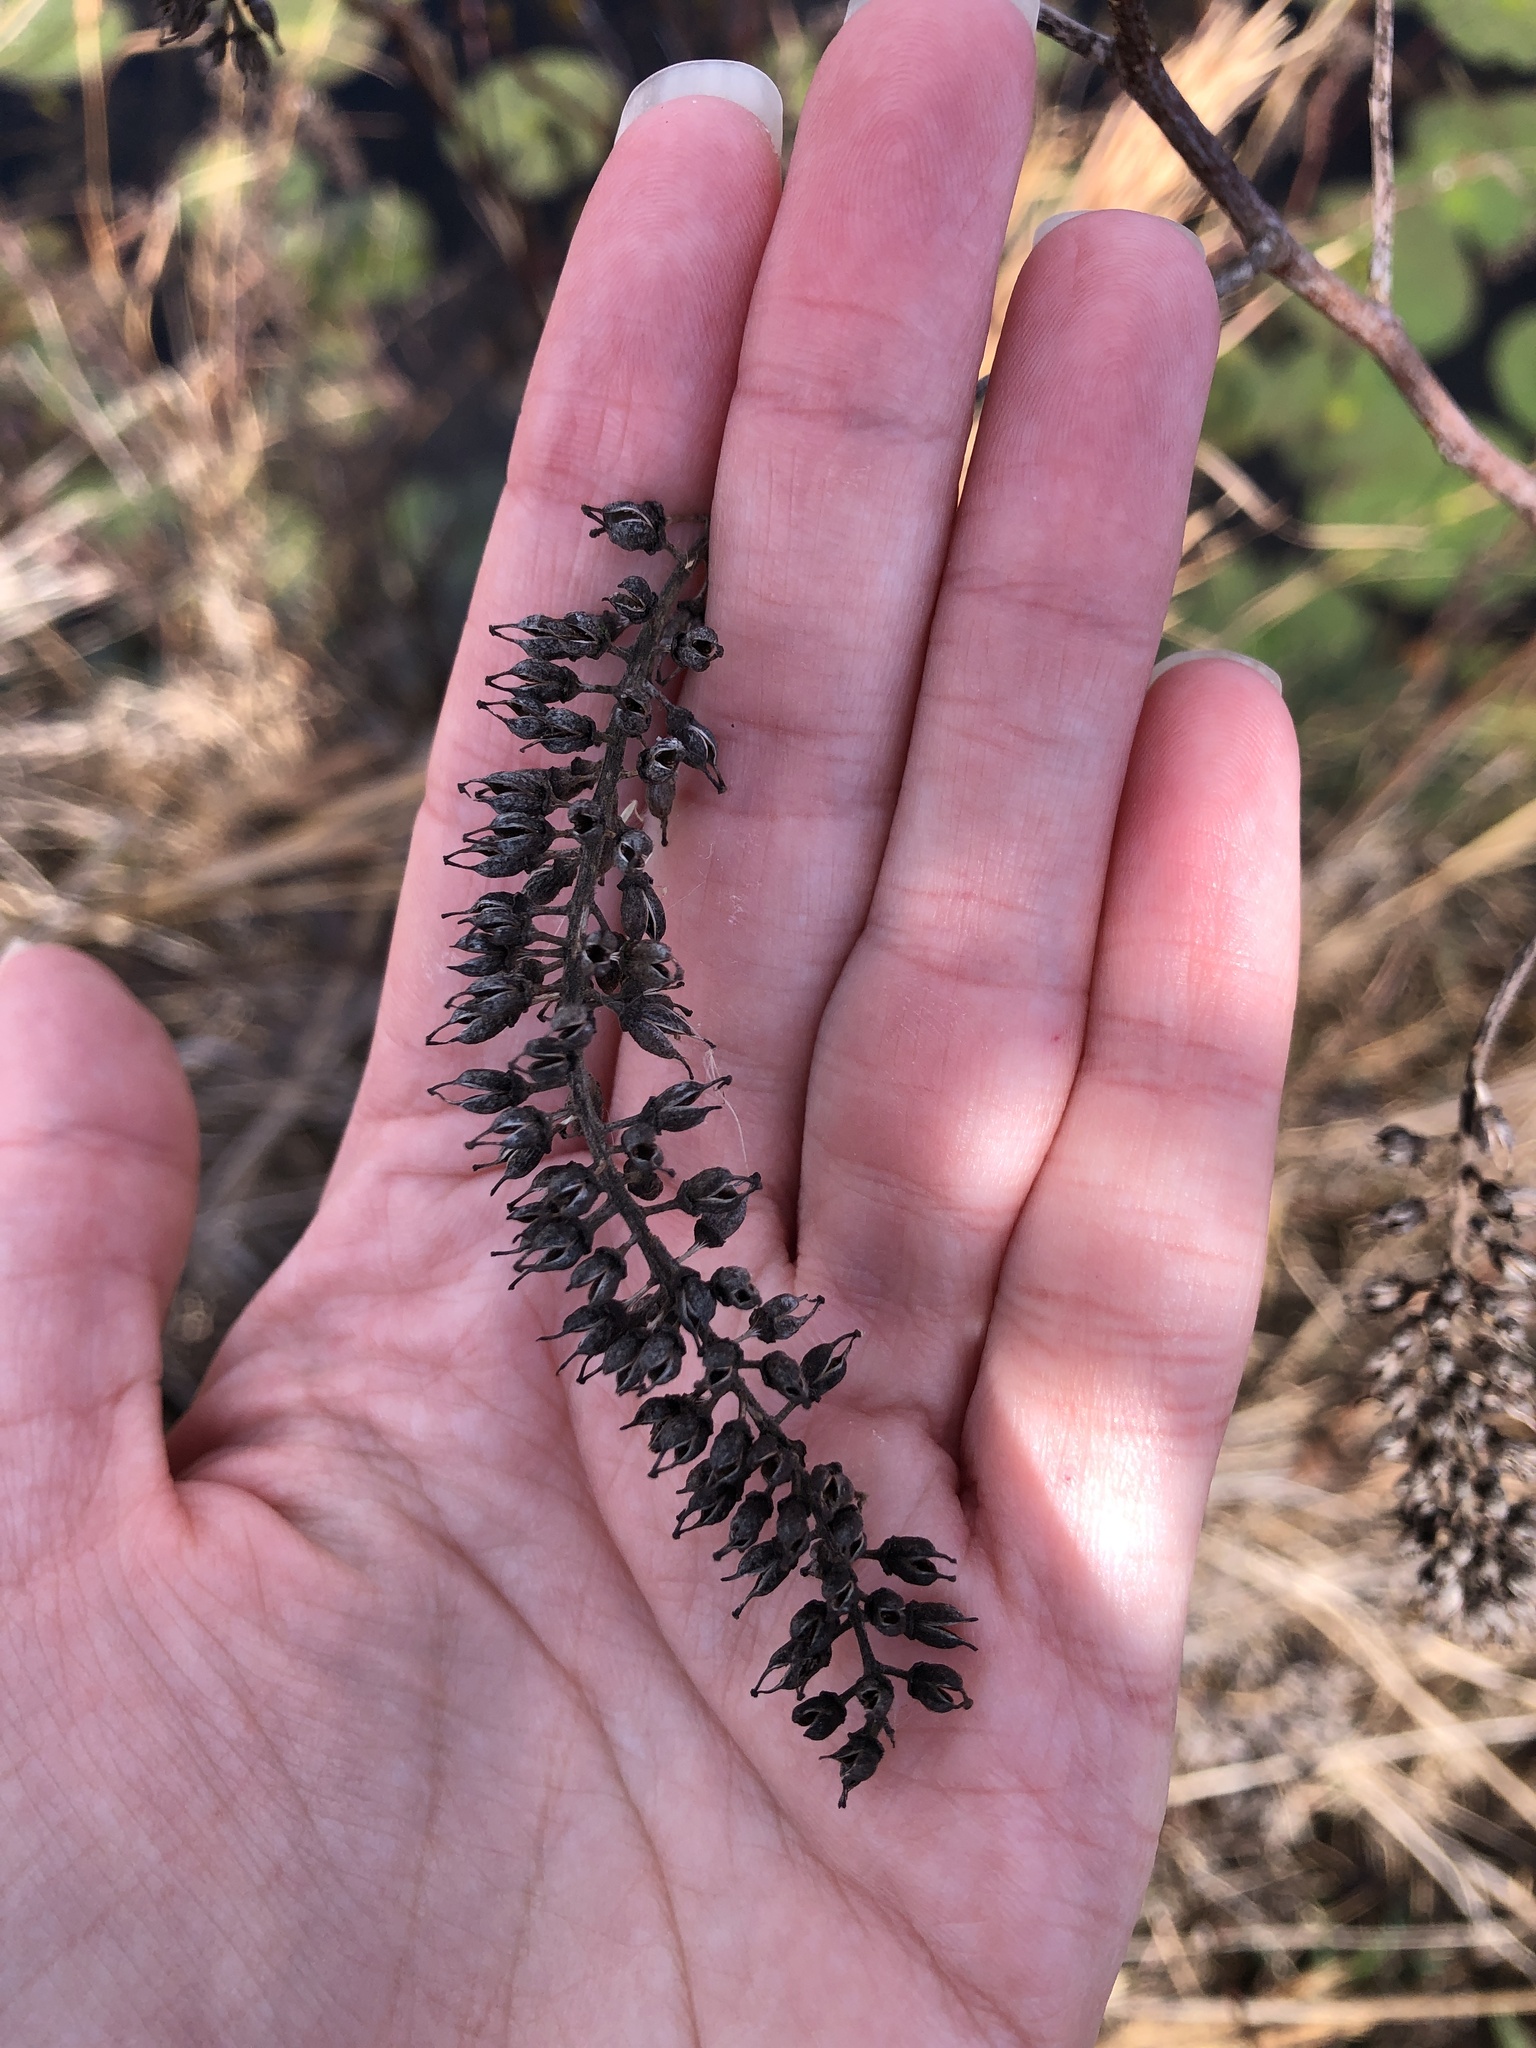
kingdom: Plantae
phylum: Tracheophyta
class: Magnoliopsida
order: Saxifragales
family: Iteaceae
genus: Itea
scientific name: Itea virginica
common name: Sweetspire
